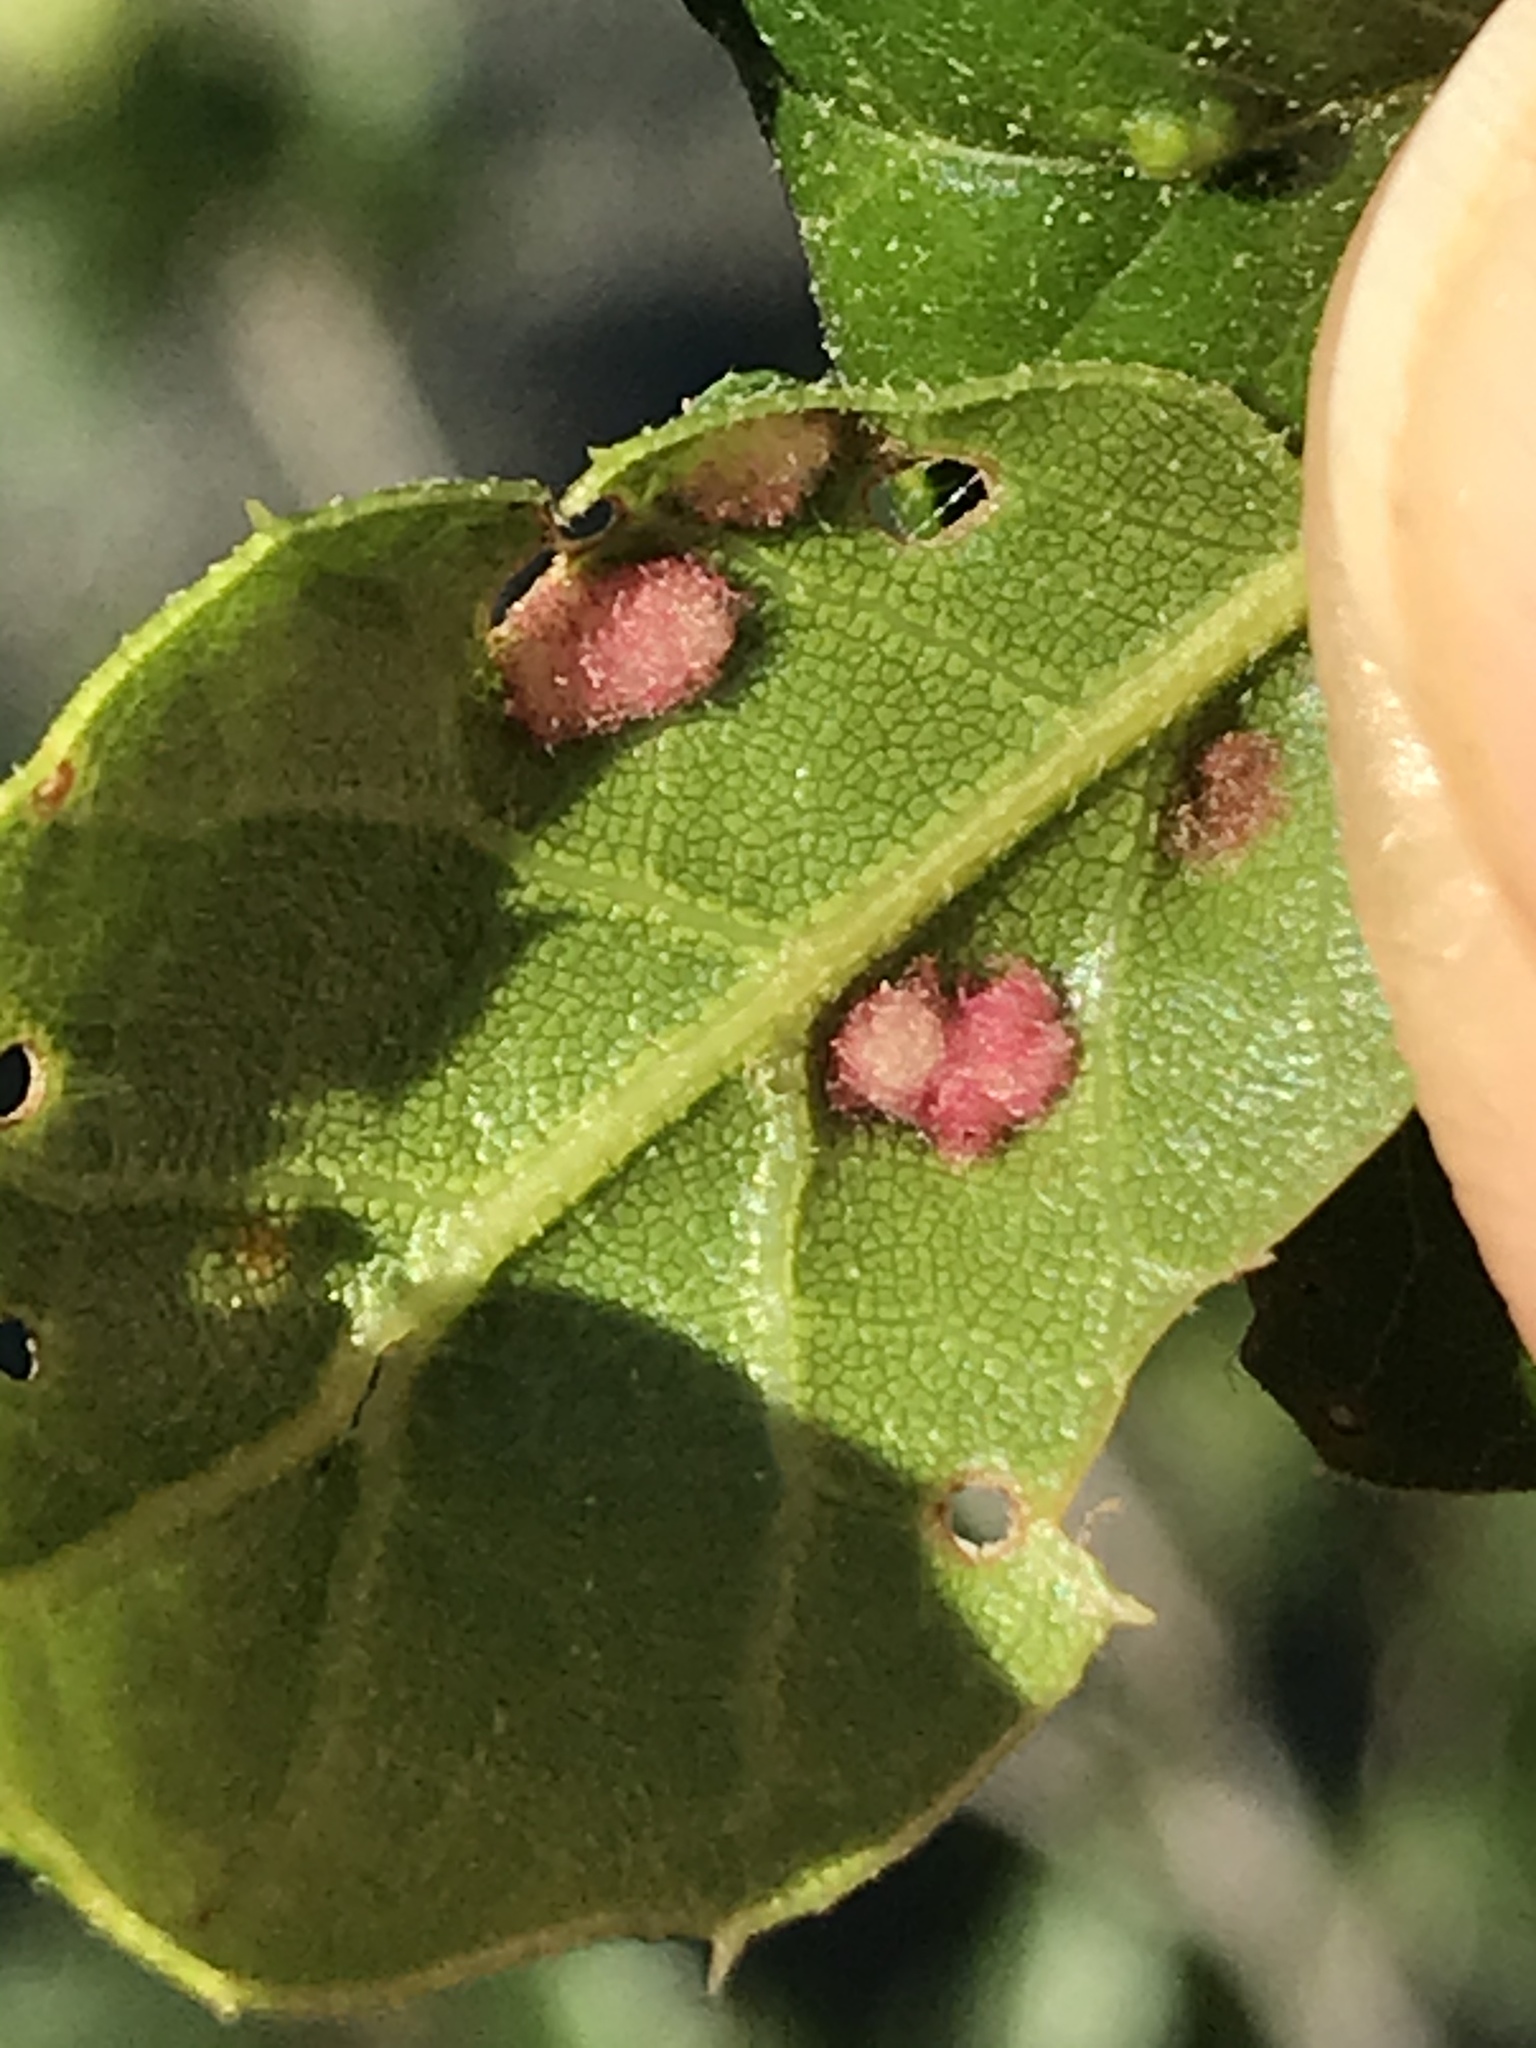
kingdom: Animalia
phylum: Arthropoda
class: Arachnida
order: Trombidiformes
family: Eriophyidae
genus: Aceria
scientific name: Aceria
